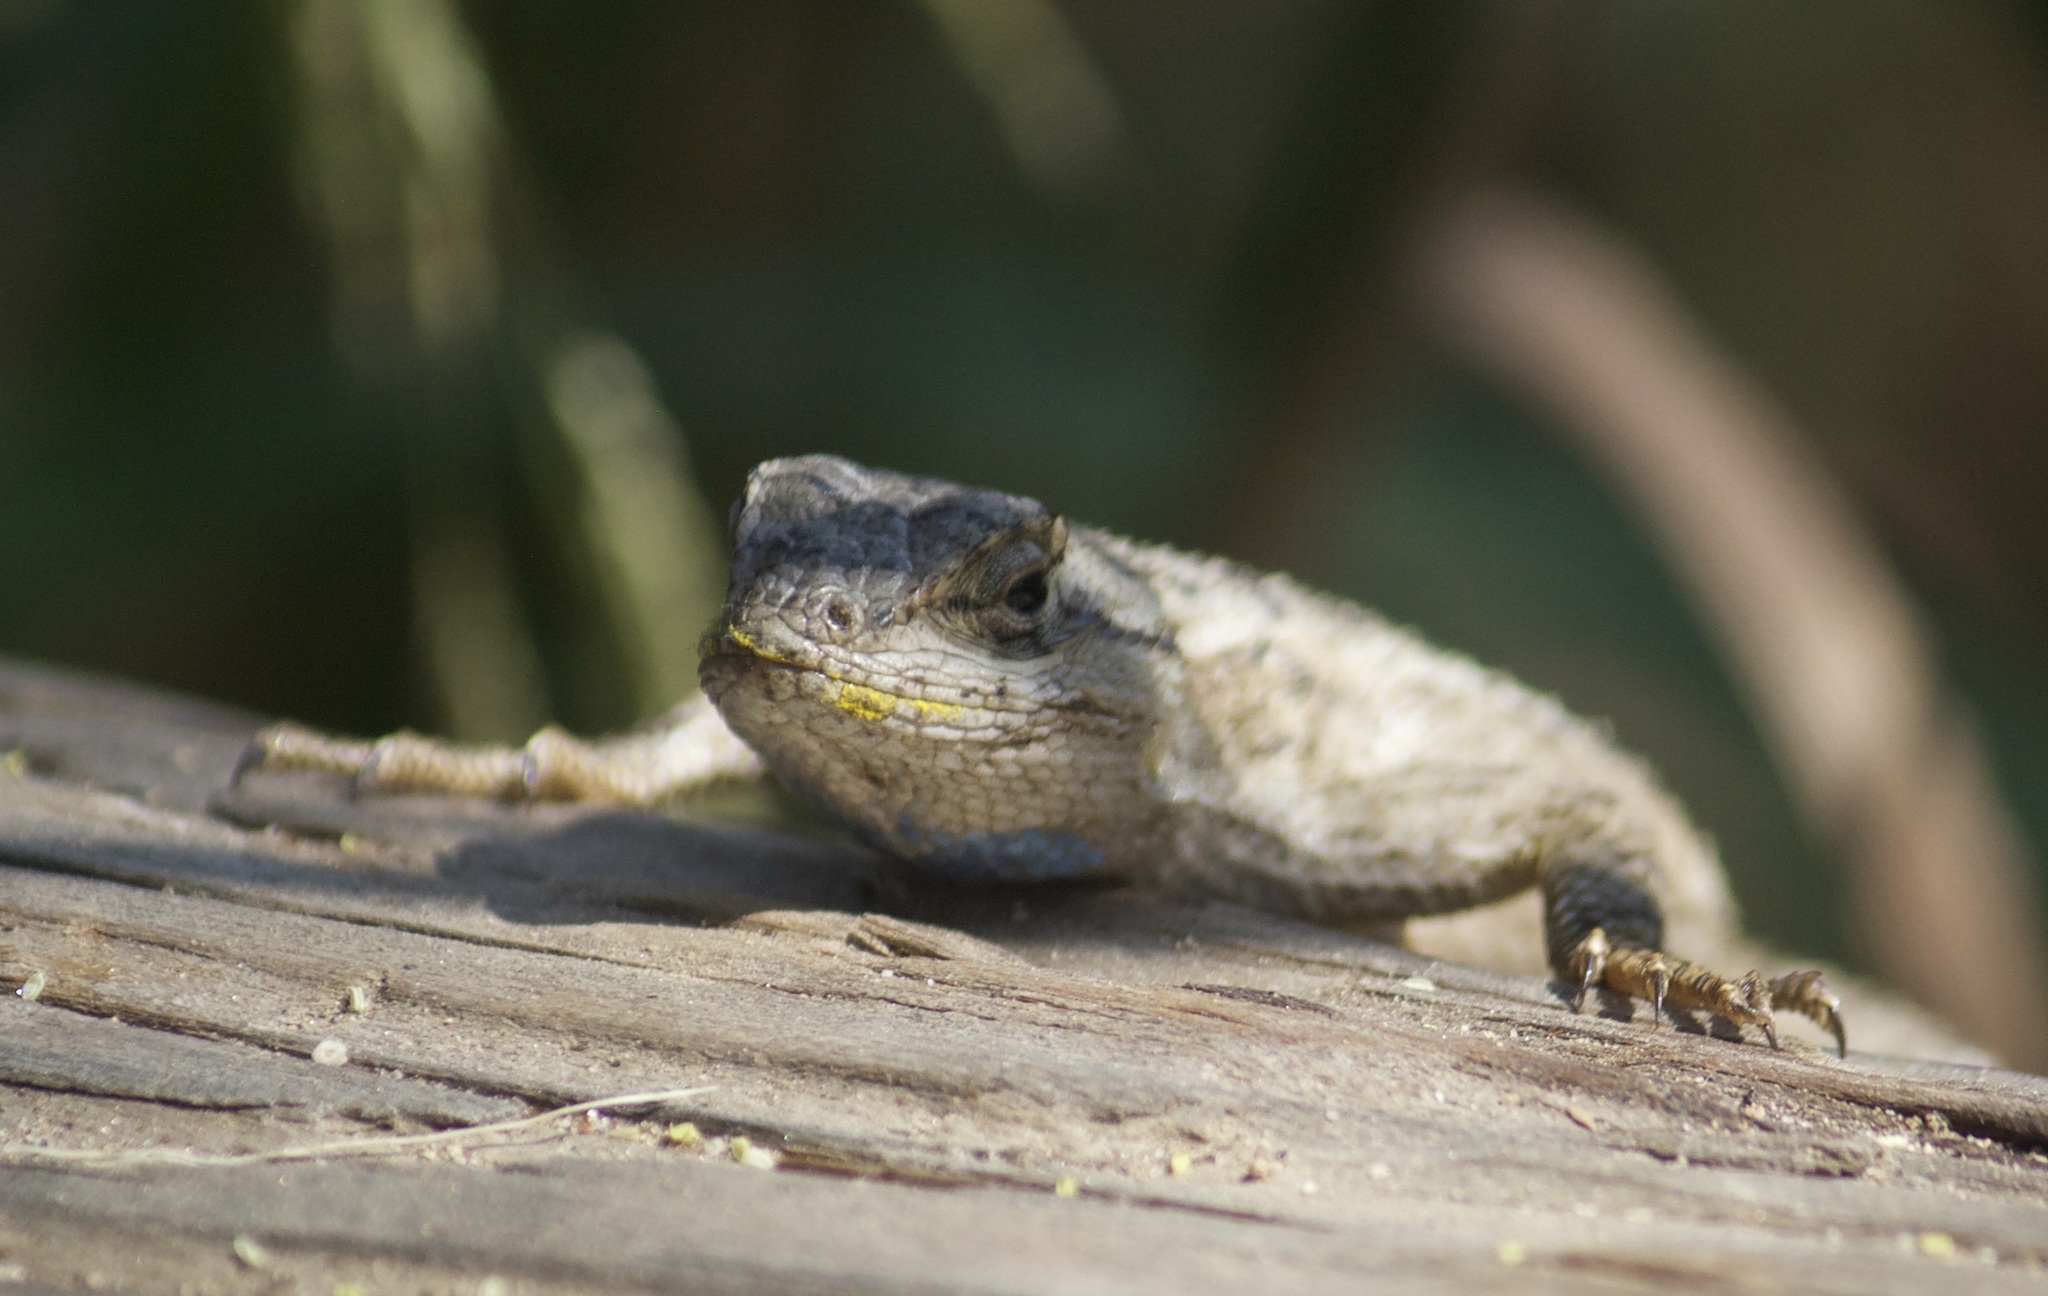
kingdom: Animalia
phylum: Chordata
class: Squamata
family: Phrynosomatidae
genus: Sceloporus
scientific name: Sceloporus occidentalis
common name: Western fence lizard
